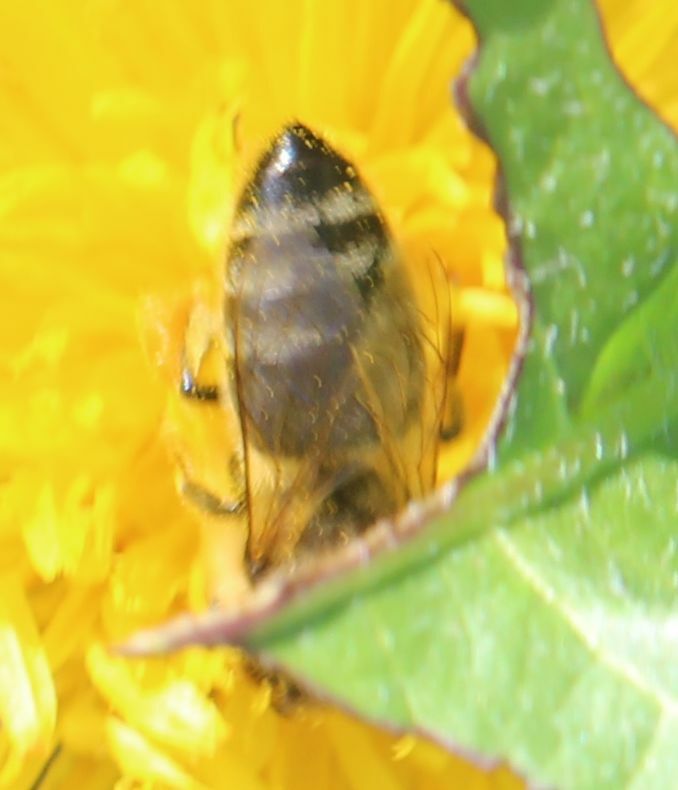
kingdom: Animalia
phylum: Arthropoda
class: Insecta
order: Hymenoptera
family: Apidae
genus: Apis
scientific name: Apis mellifera
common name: Honey bee
